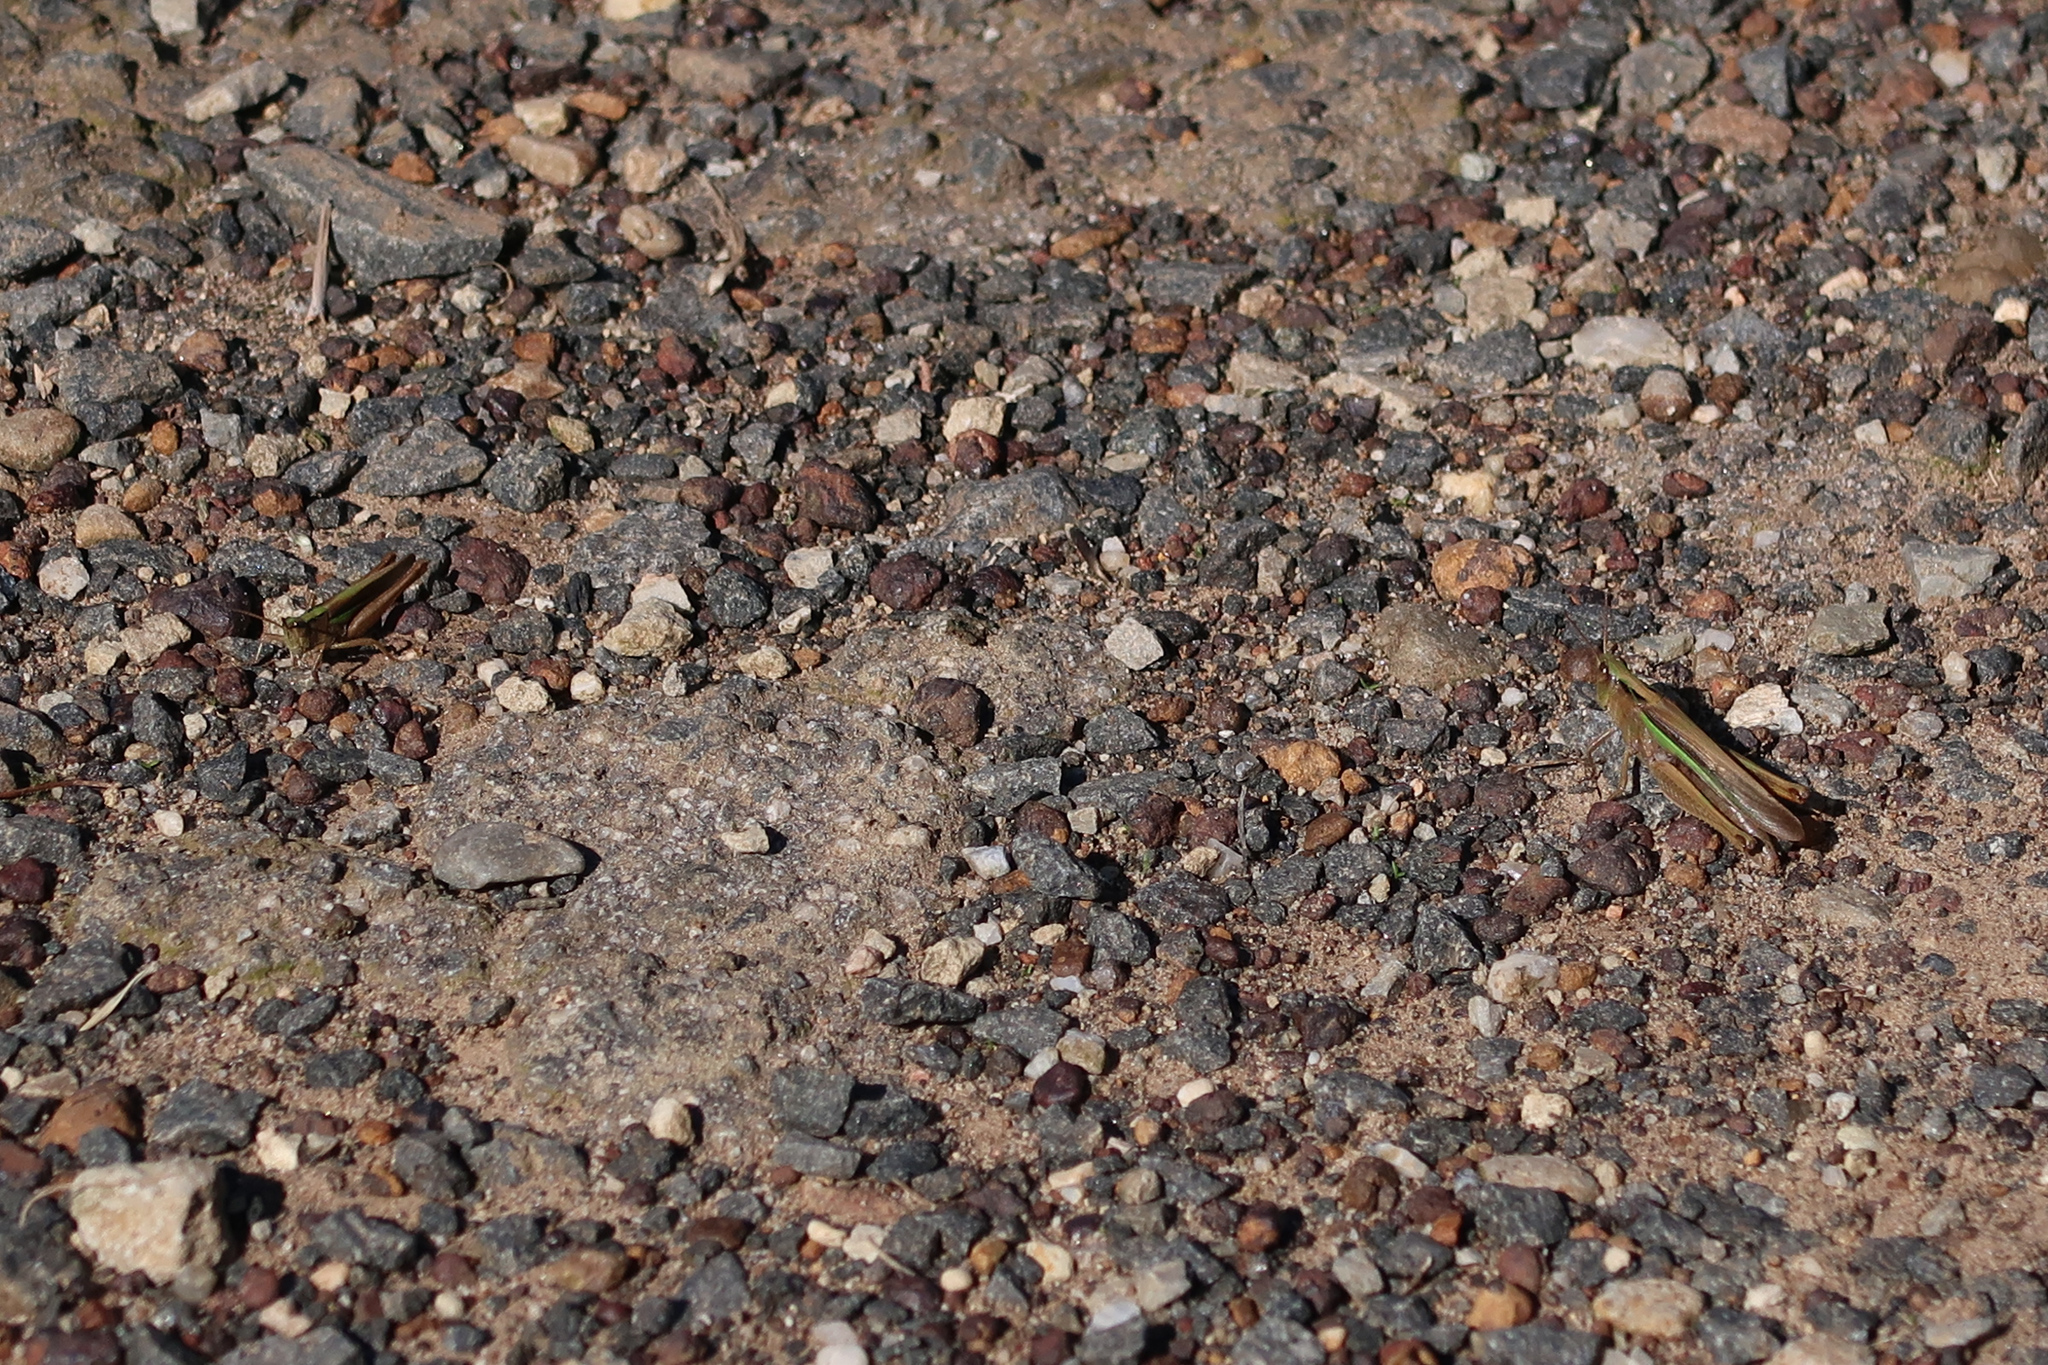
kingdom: Animalia
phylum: Arthropoda
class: Insecta
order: Orthoptera
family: Acrididae
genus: Schizobothrus
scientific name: Schizobothrus flavovittatus
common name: Disappearing grasshopper
